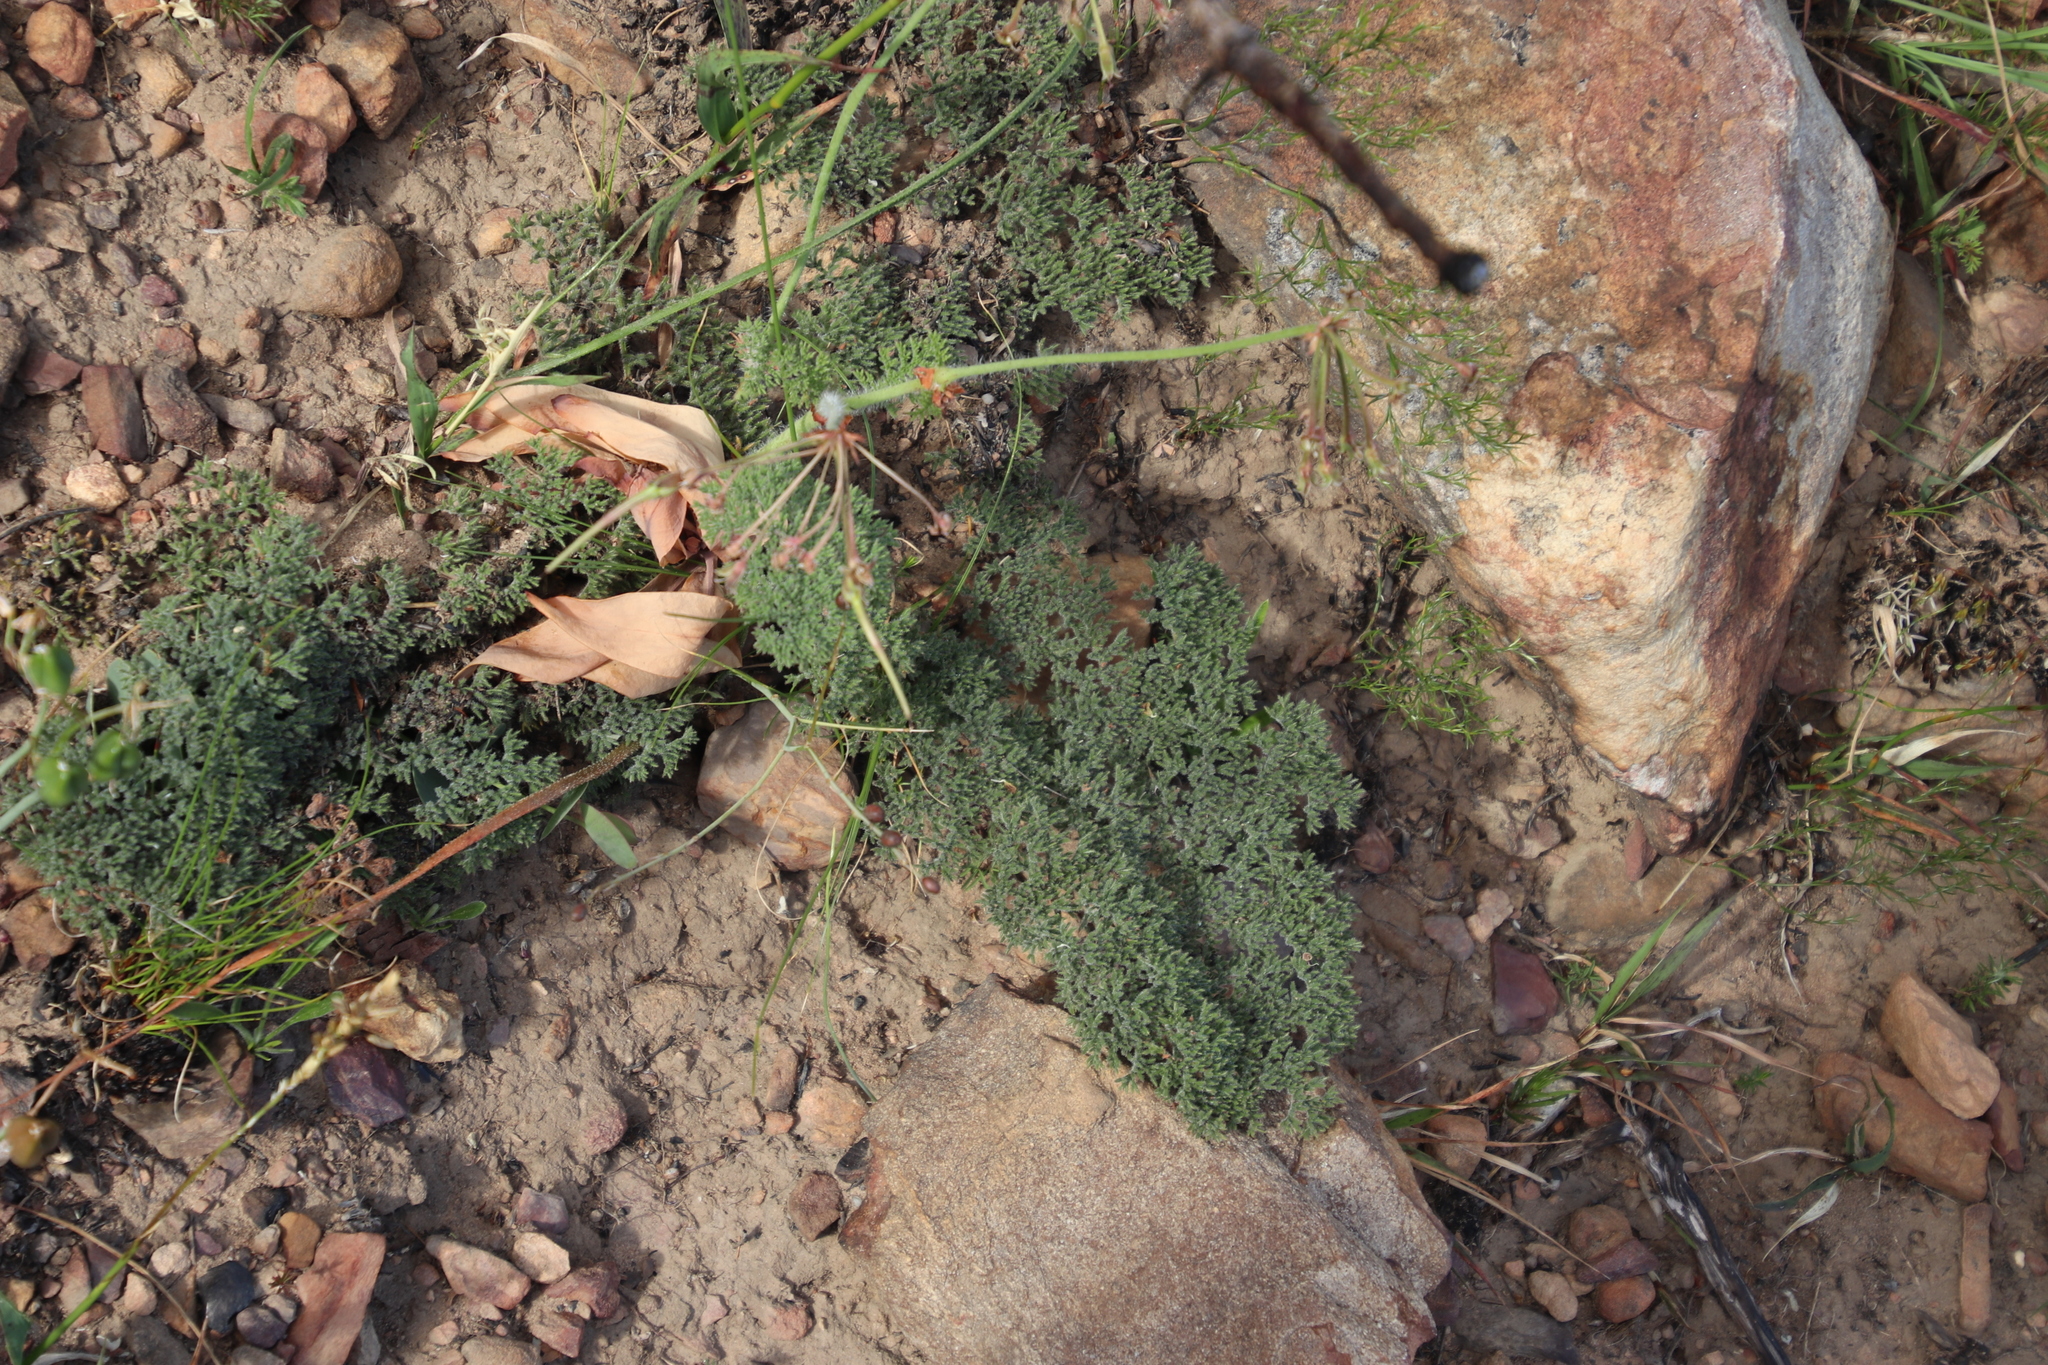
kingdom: Plantae
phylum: Tracheophyta
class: Magnoliopsida
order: Geraniales
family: Geraniaceae
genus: Pelargonium
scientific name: Pelargonium triste
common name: Night-scent pelargonium
